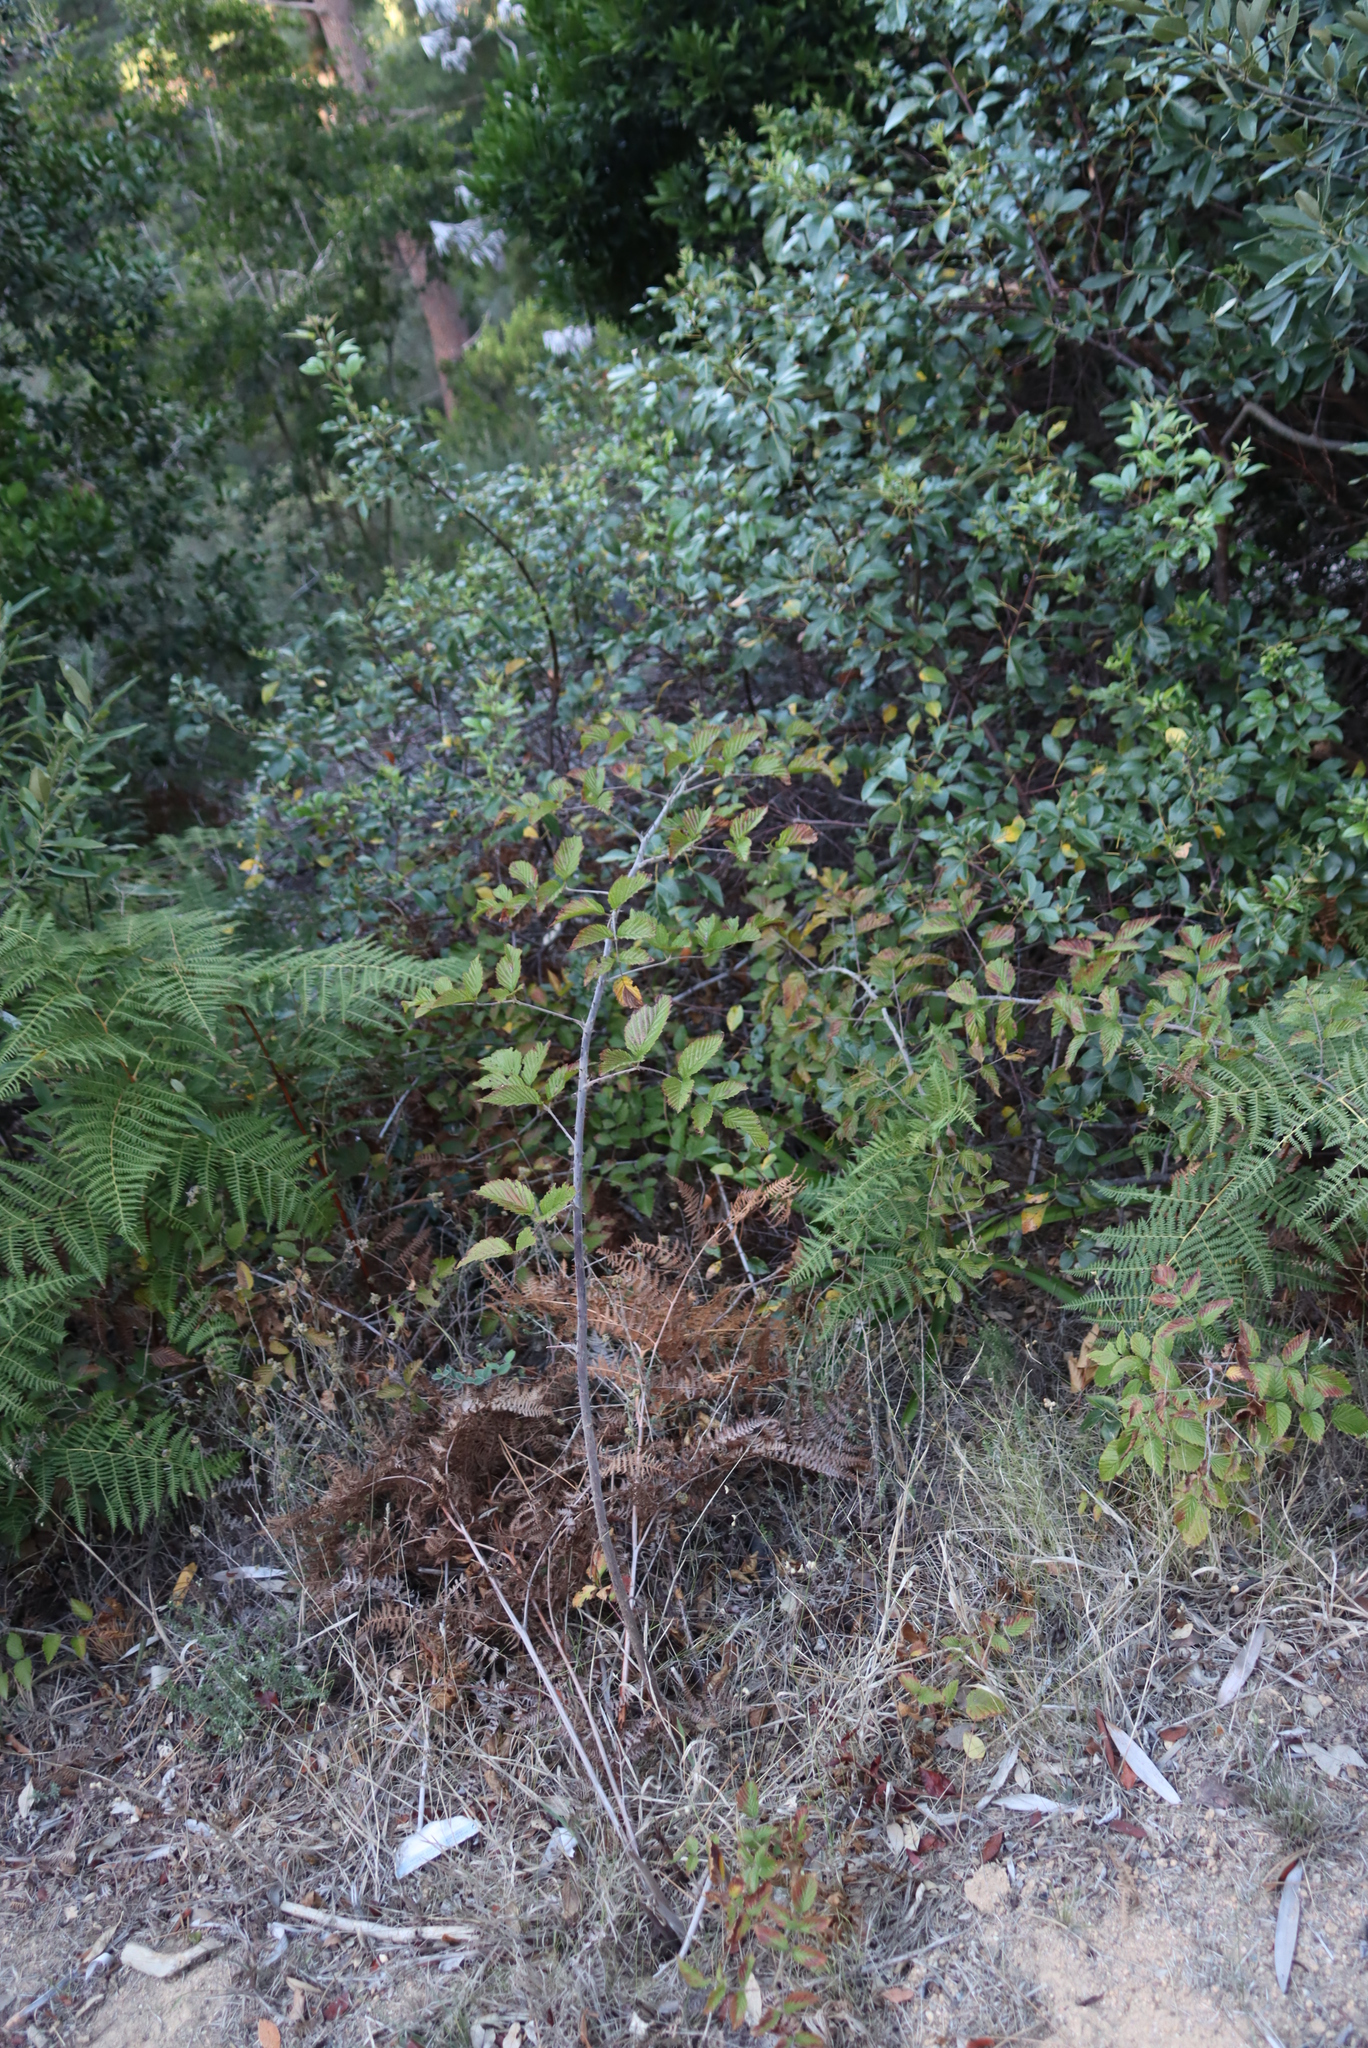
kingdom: Plantae
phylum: Tracheophyta
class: Magnoliopsida
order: Rosales
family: Rosaceae
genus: Rubus
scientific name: Rubus pinnatus
